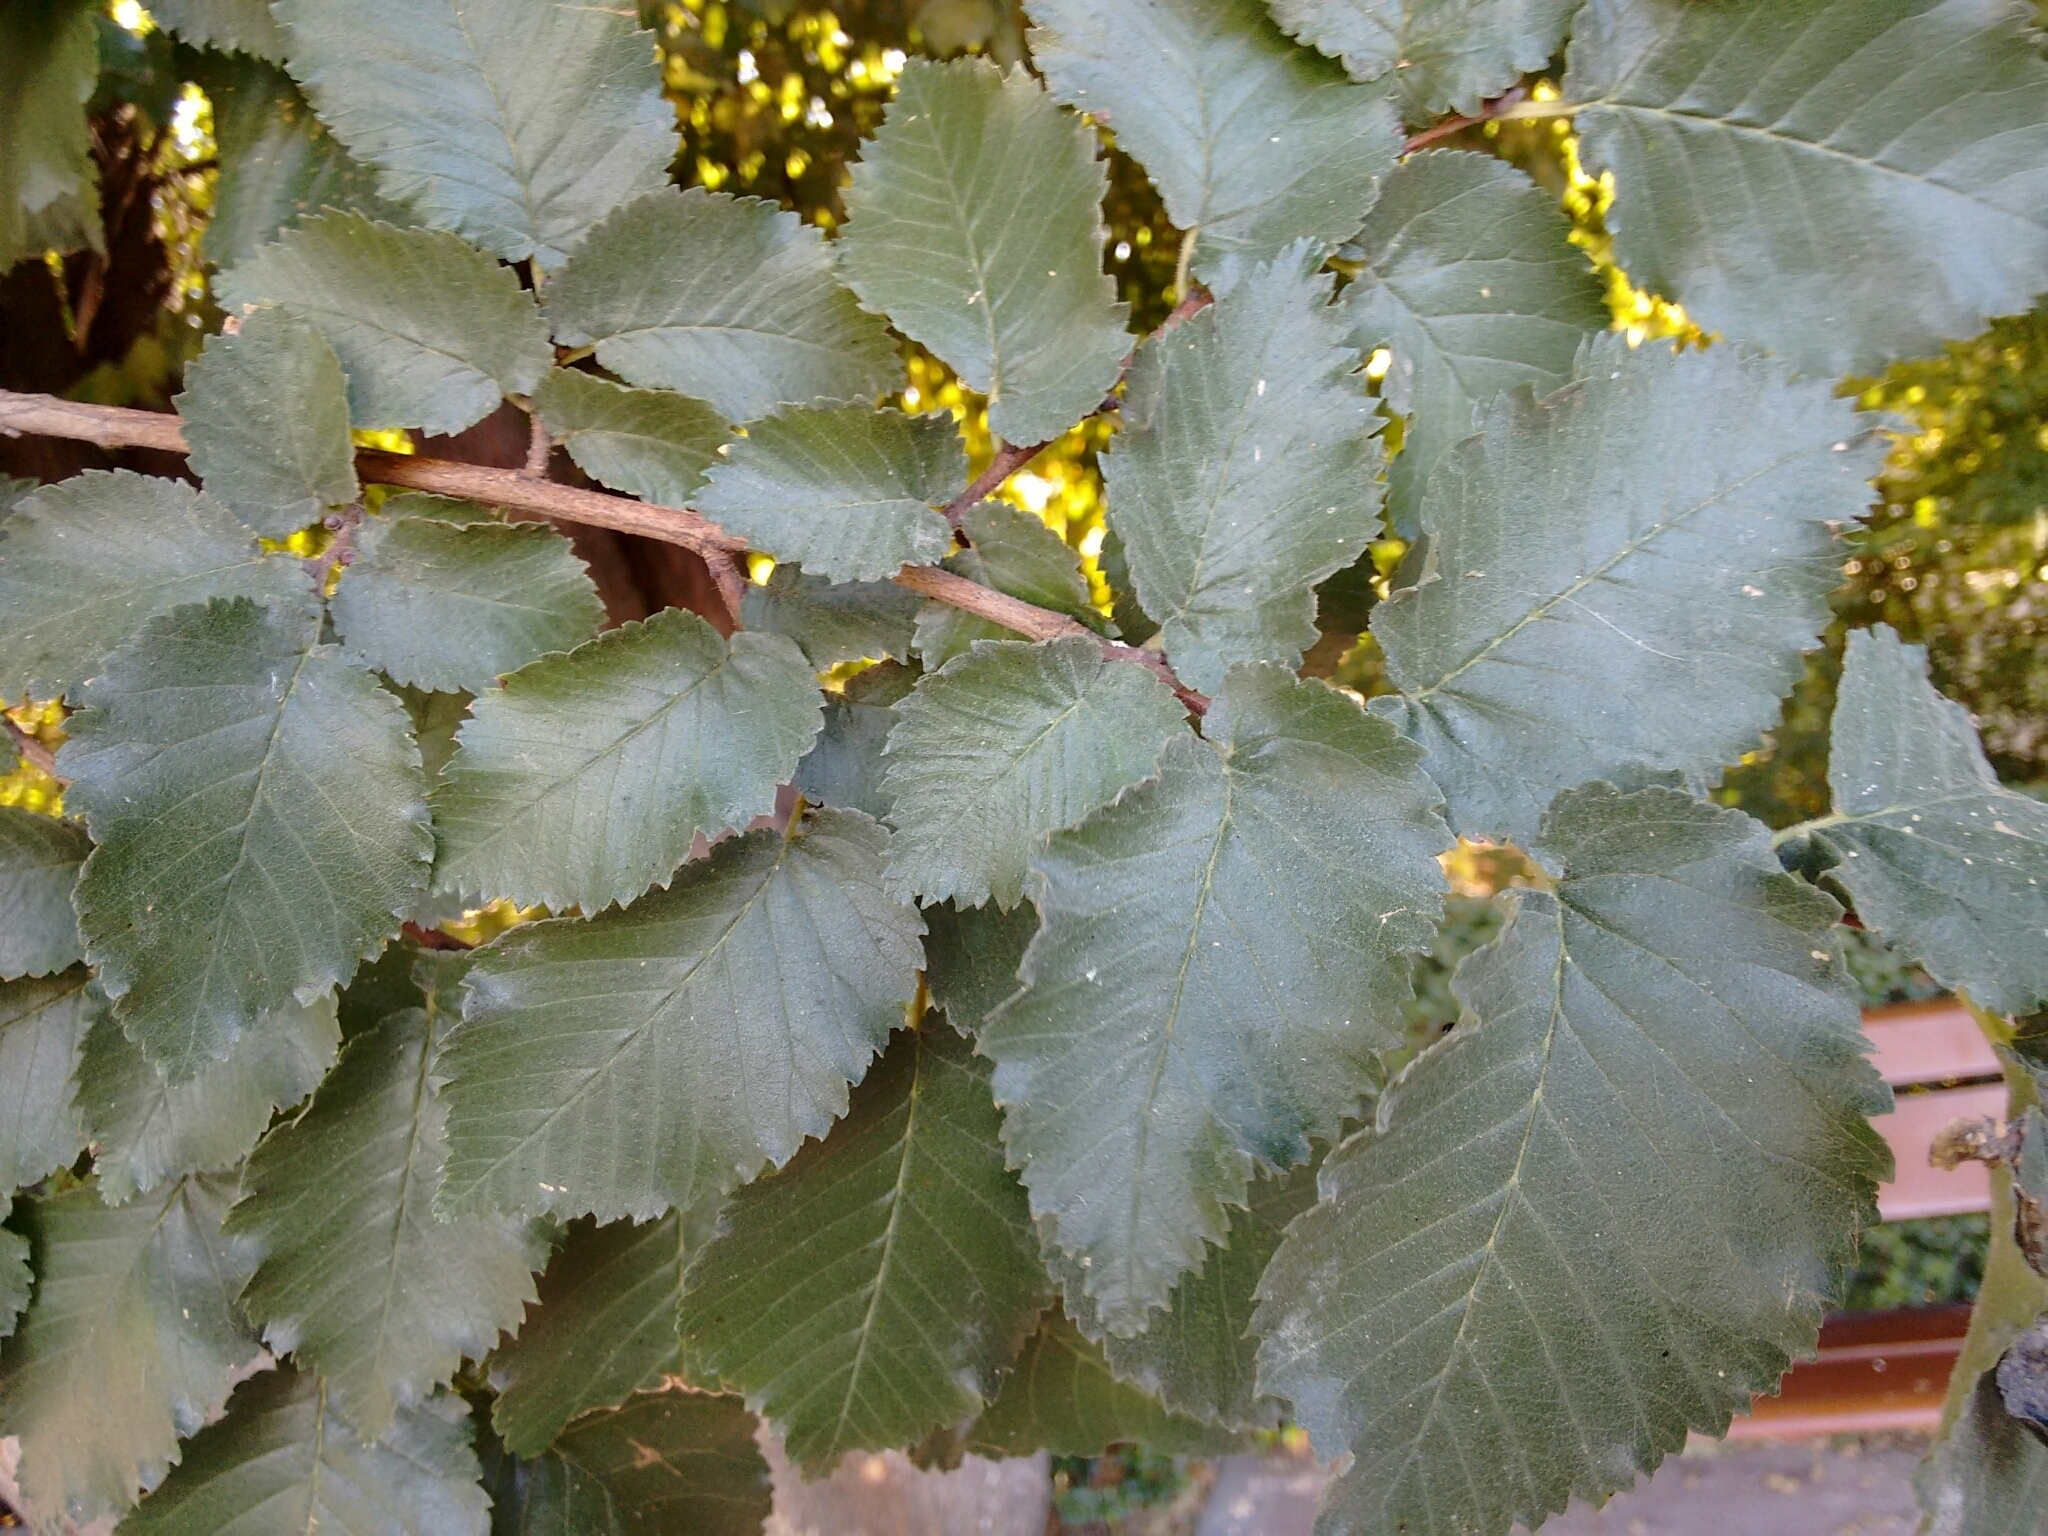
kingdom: Plantae
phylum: Tracheophyta
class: Magnoliopsida
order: Rosales
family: Ulmaceae
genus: Ulmus
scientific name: Ulmus minor
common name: Small-leaved elm
